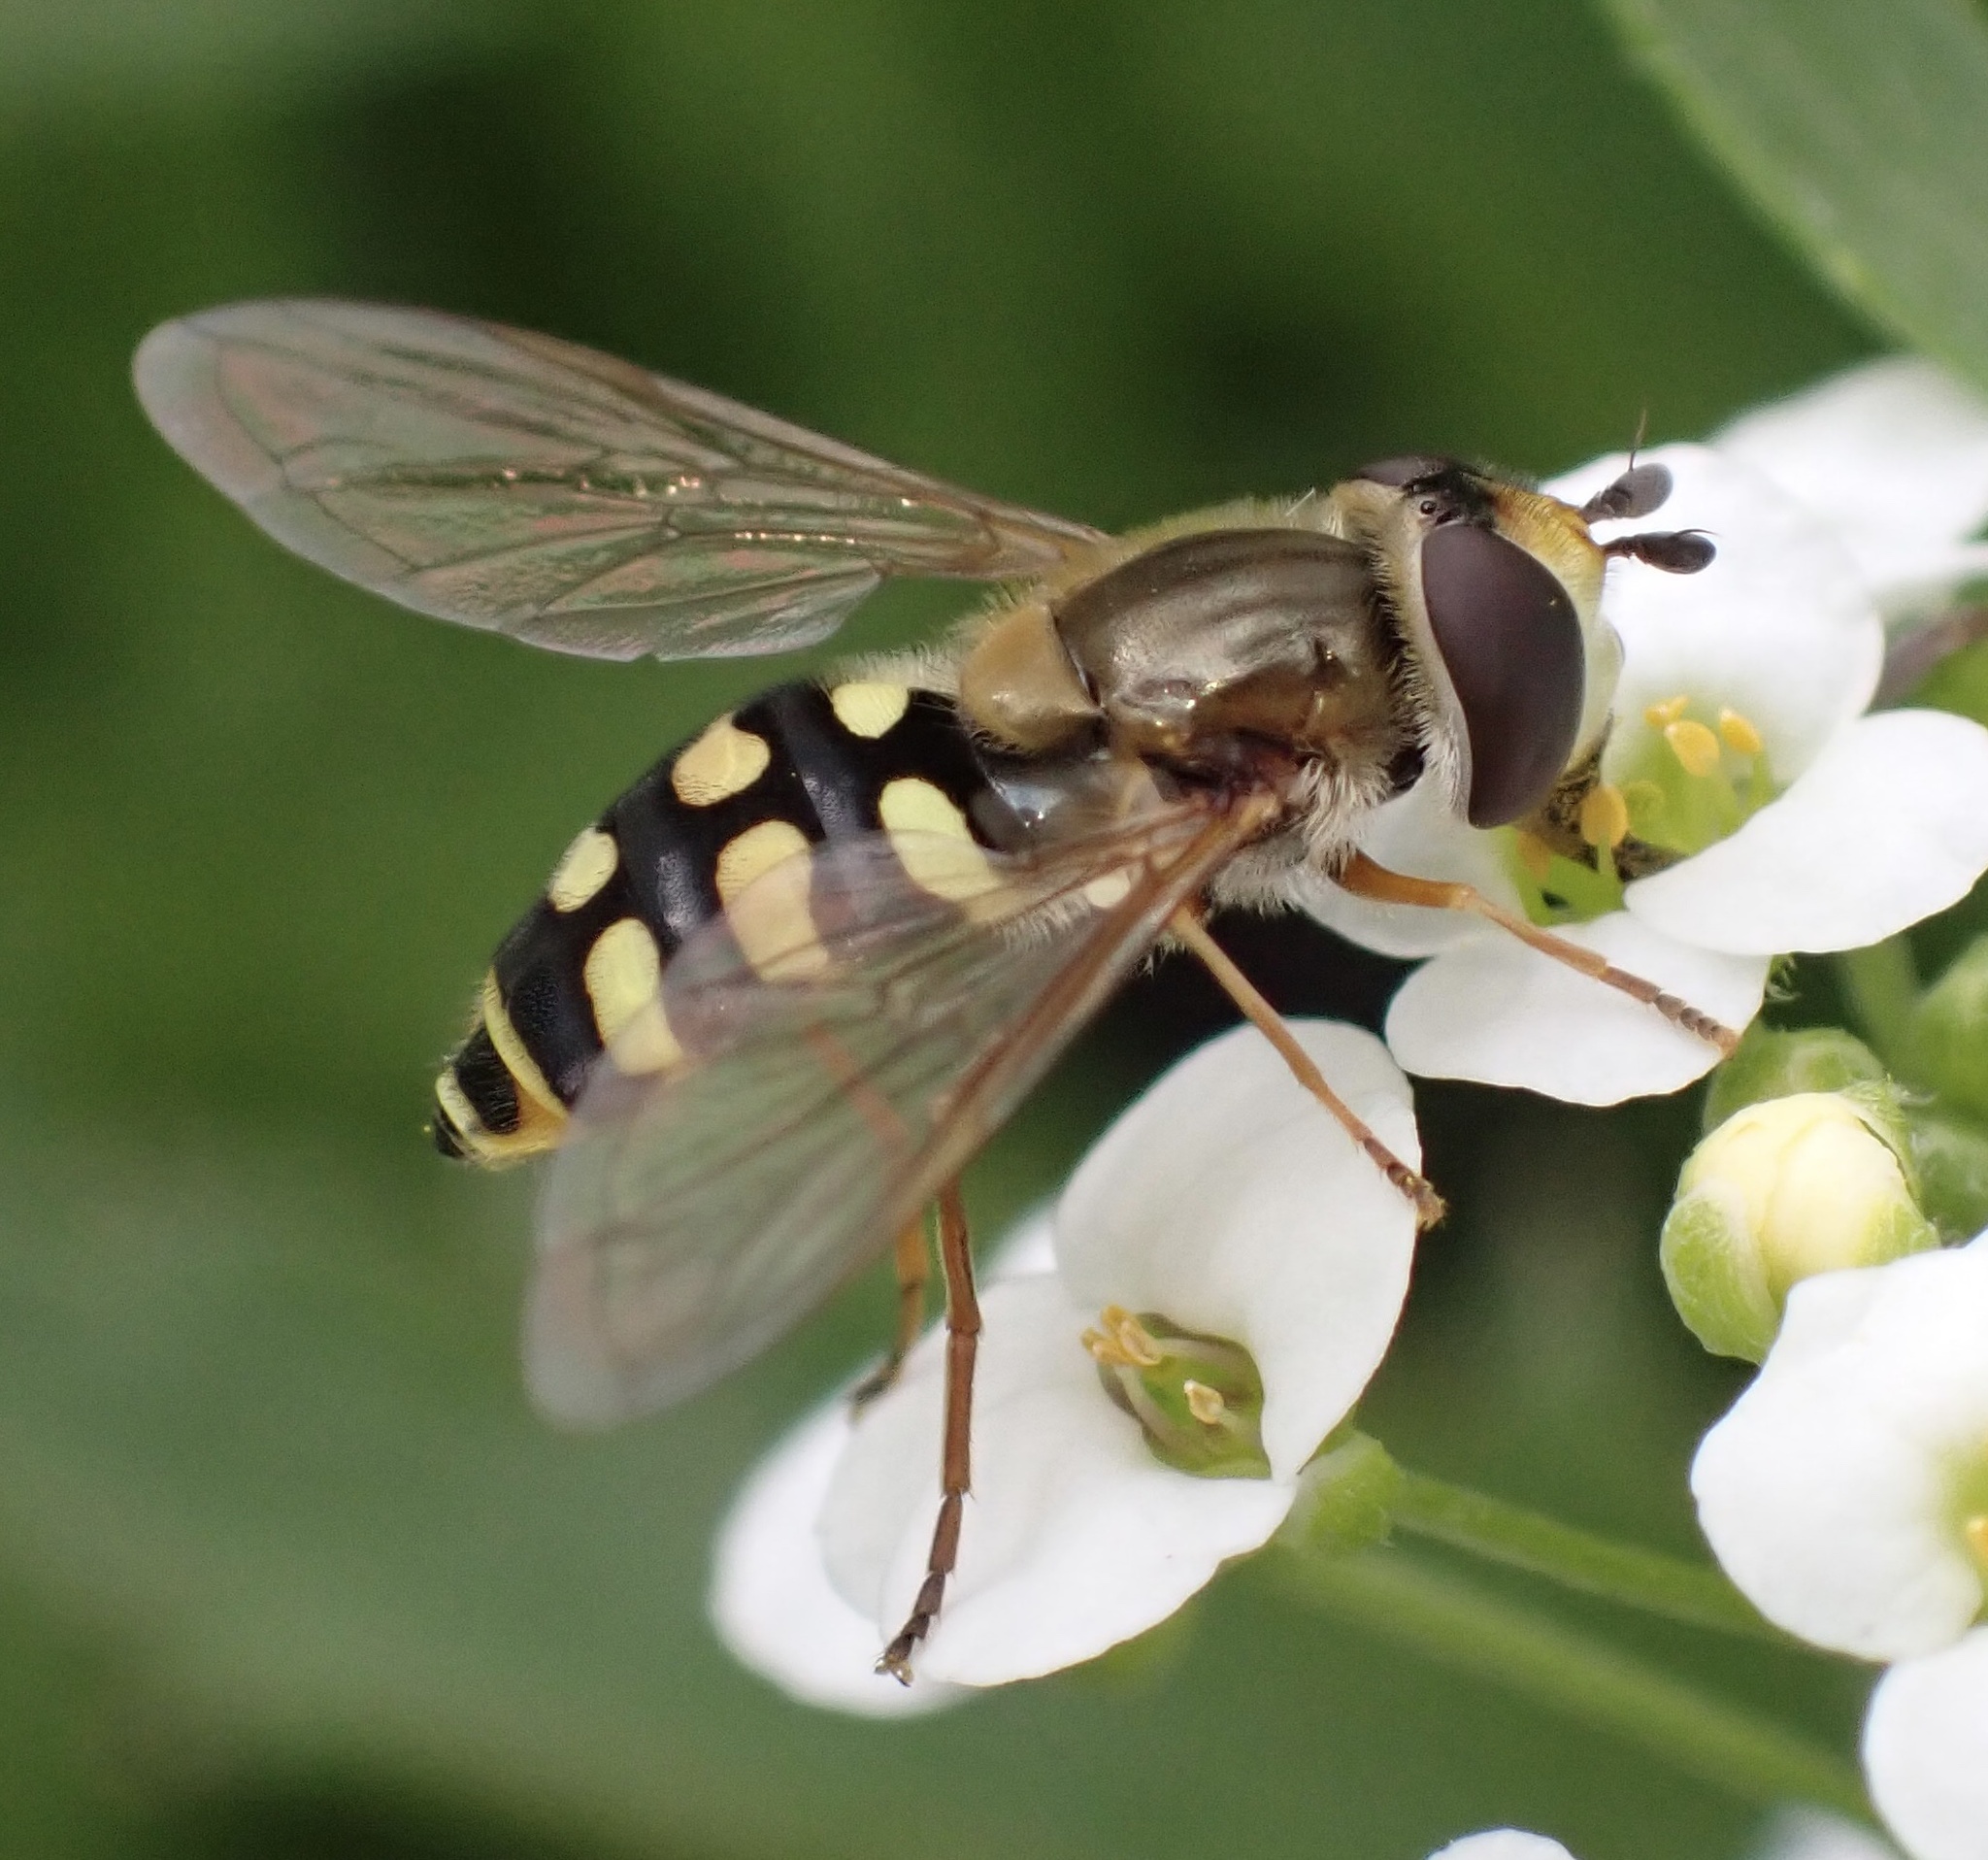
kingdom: Animalia
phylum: Arthropoda
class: Insecta
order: Diptera
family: Syrphidae
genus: Eupeodes
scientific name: Eupeodes corollae
